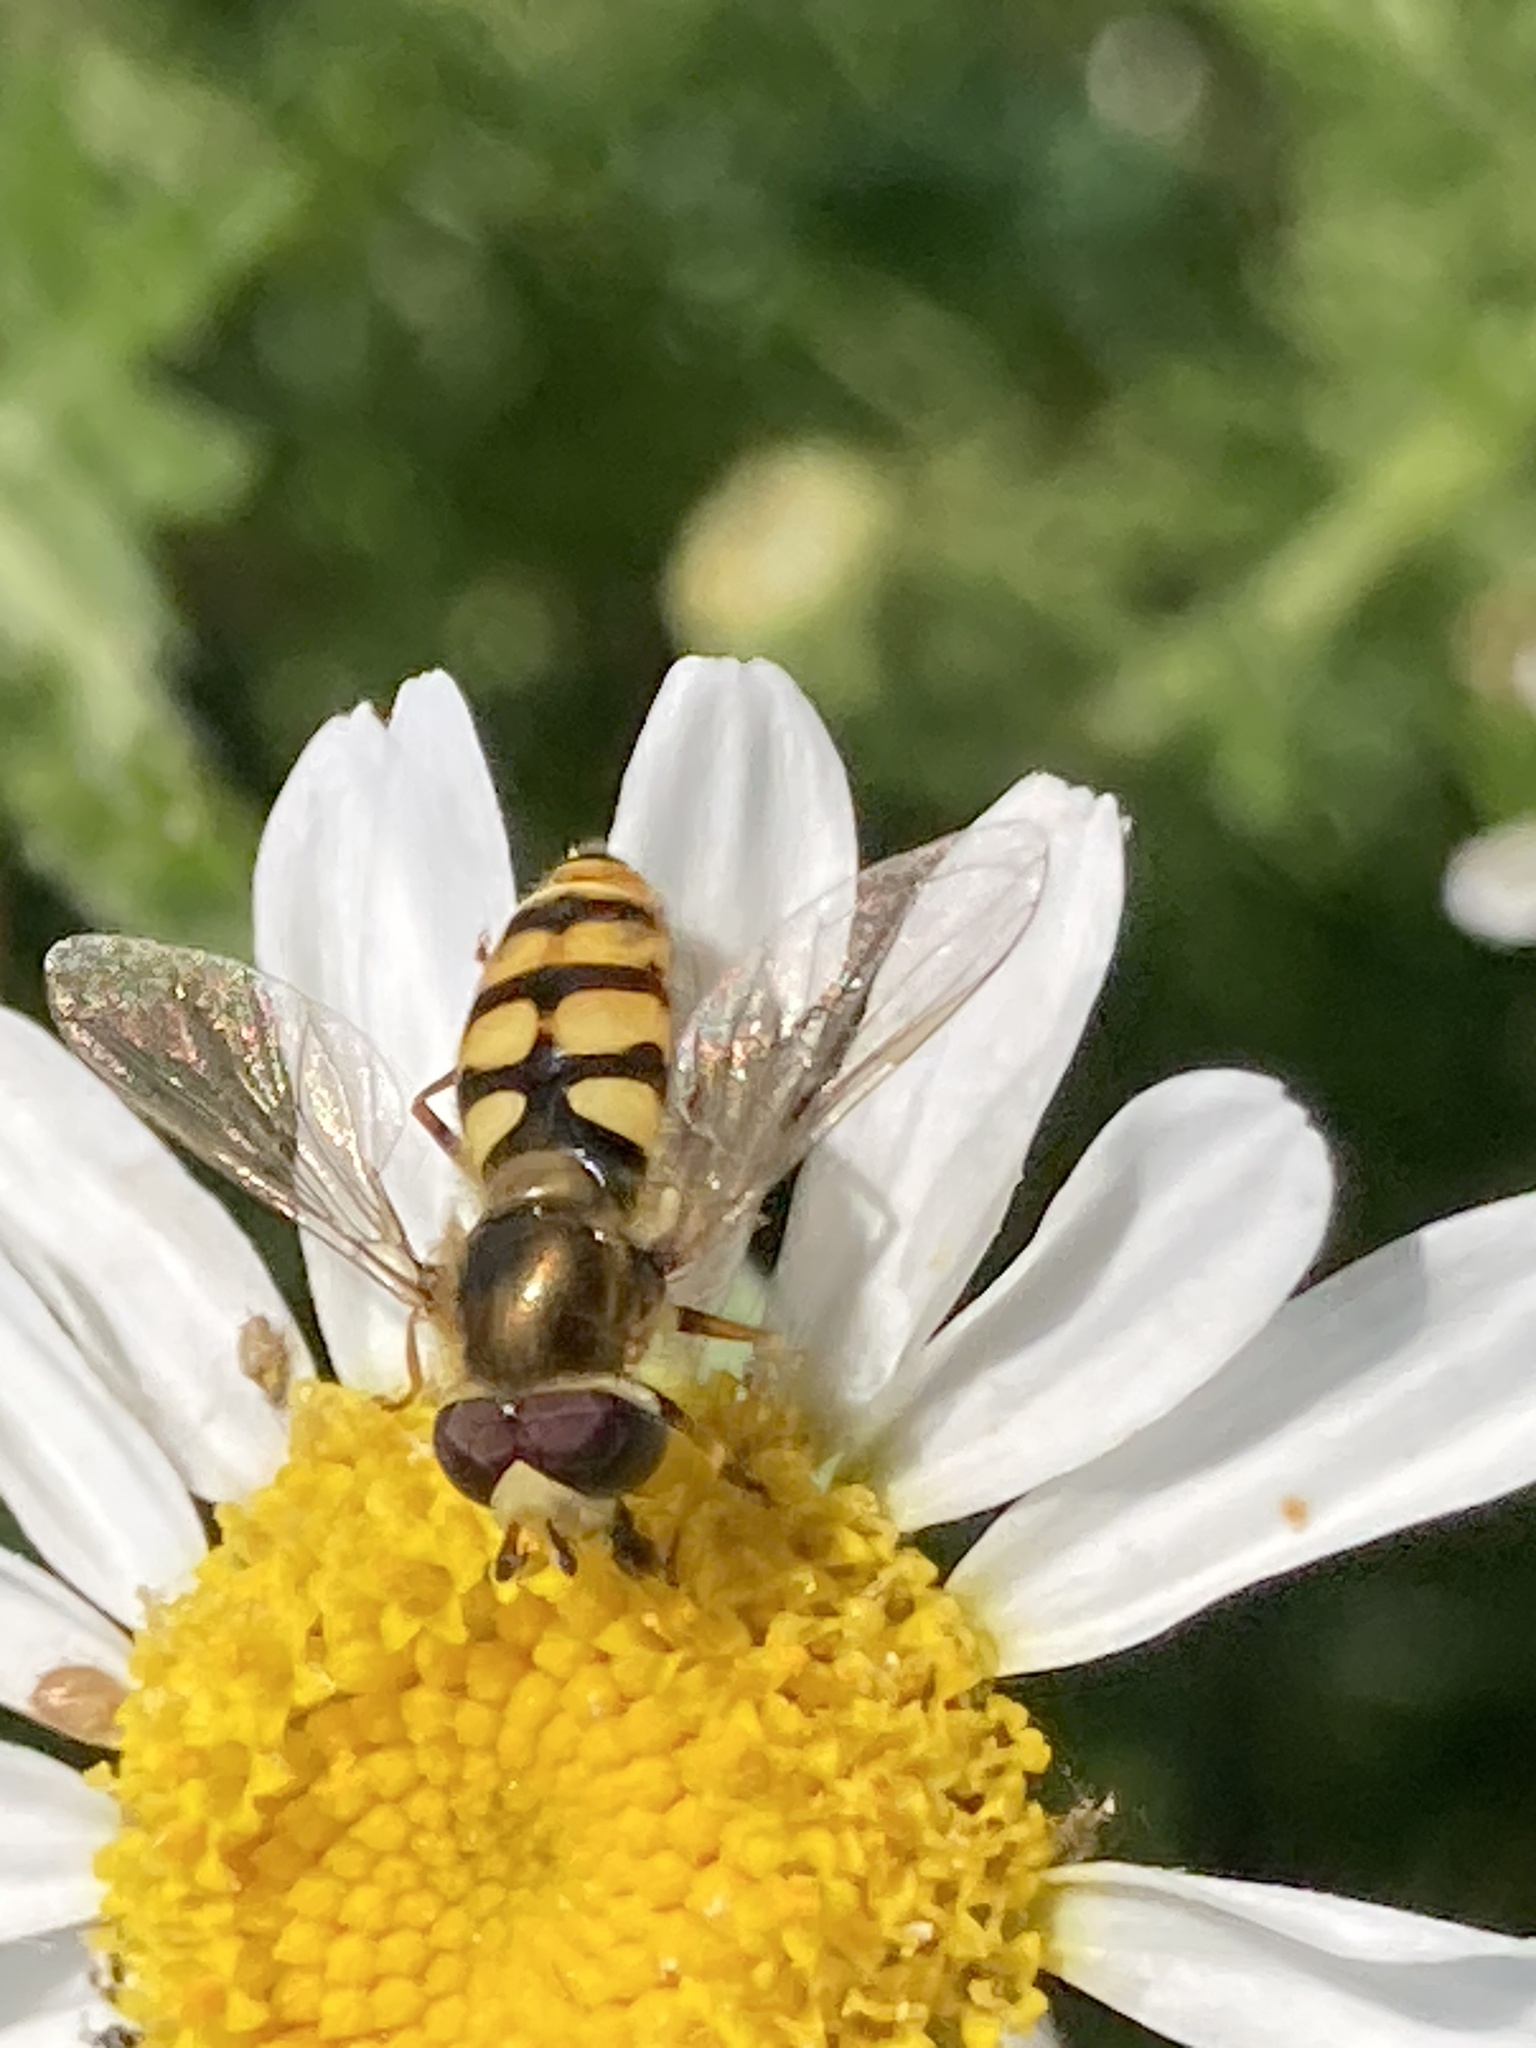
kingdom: Animalia
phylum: Arthropoda
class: Insecta
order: Diptera
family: Syrphidae
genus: Eupeodes
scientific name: Eupeodes corollae
